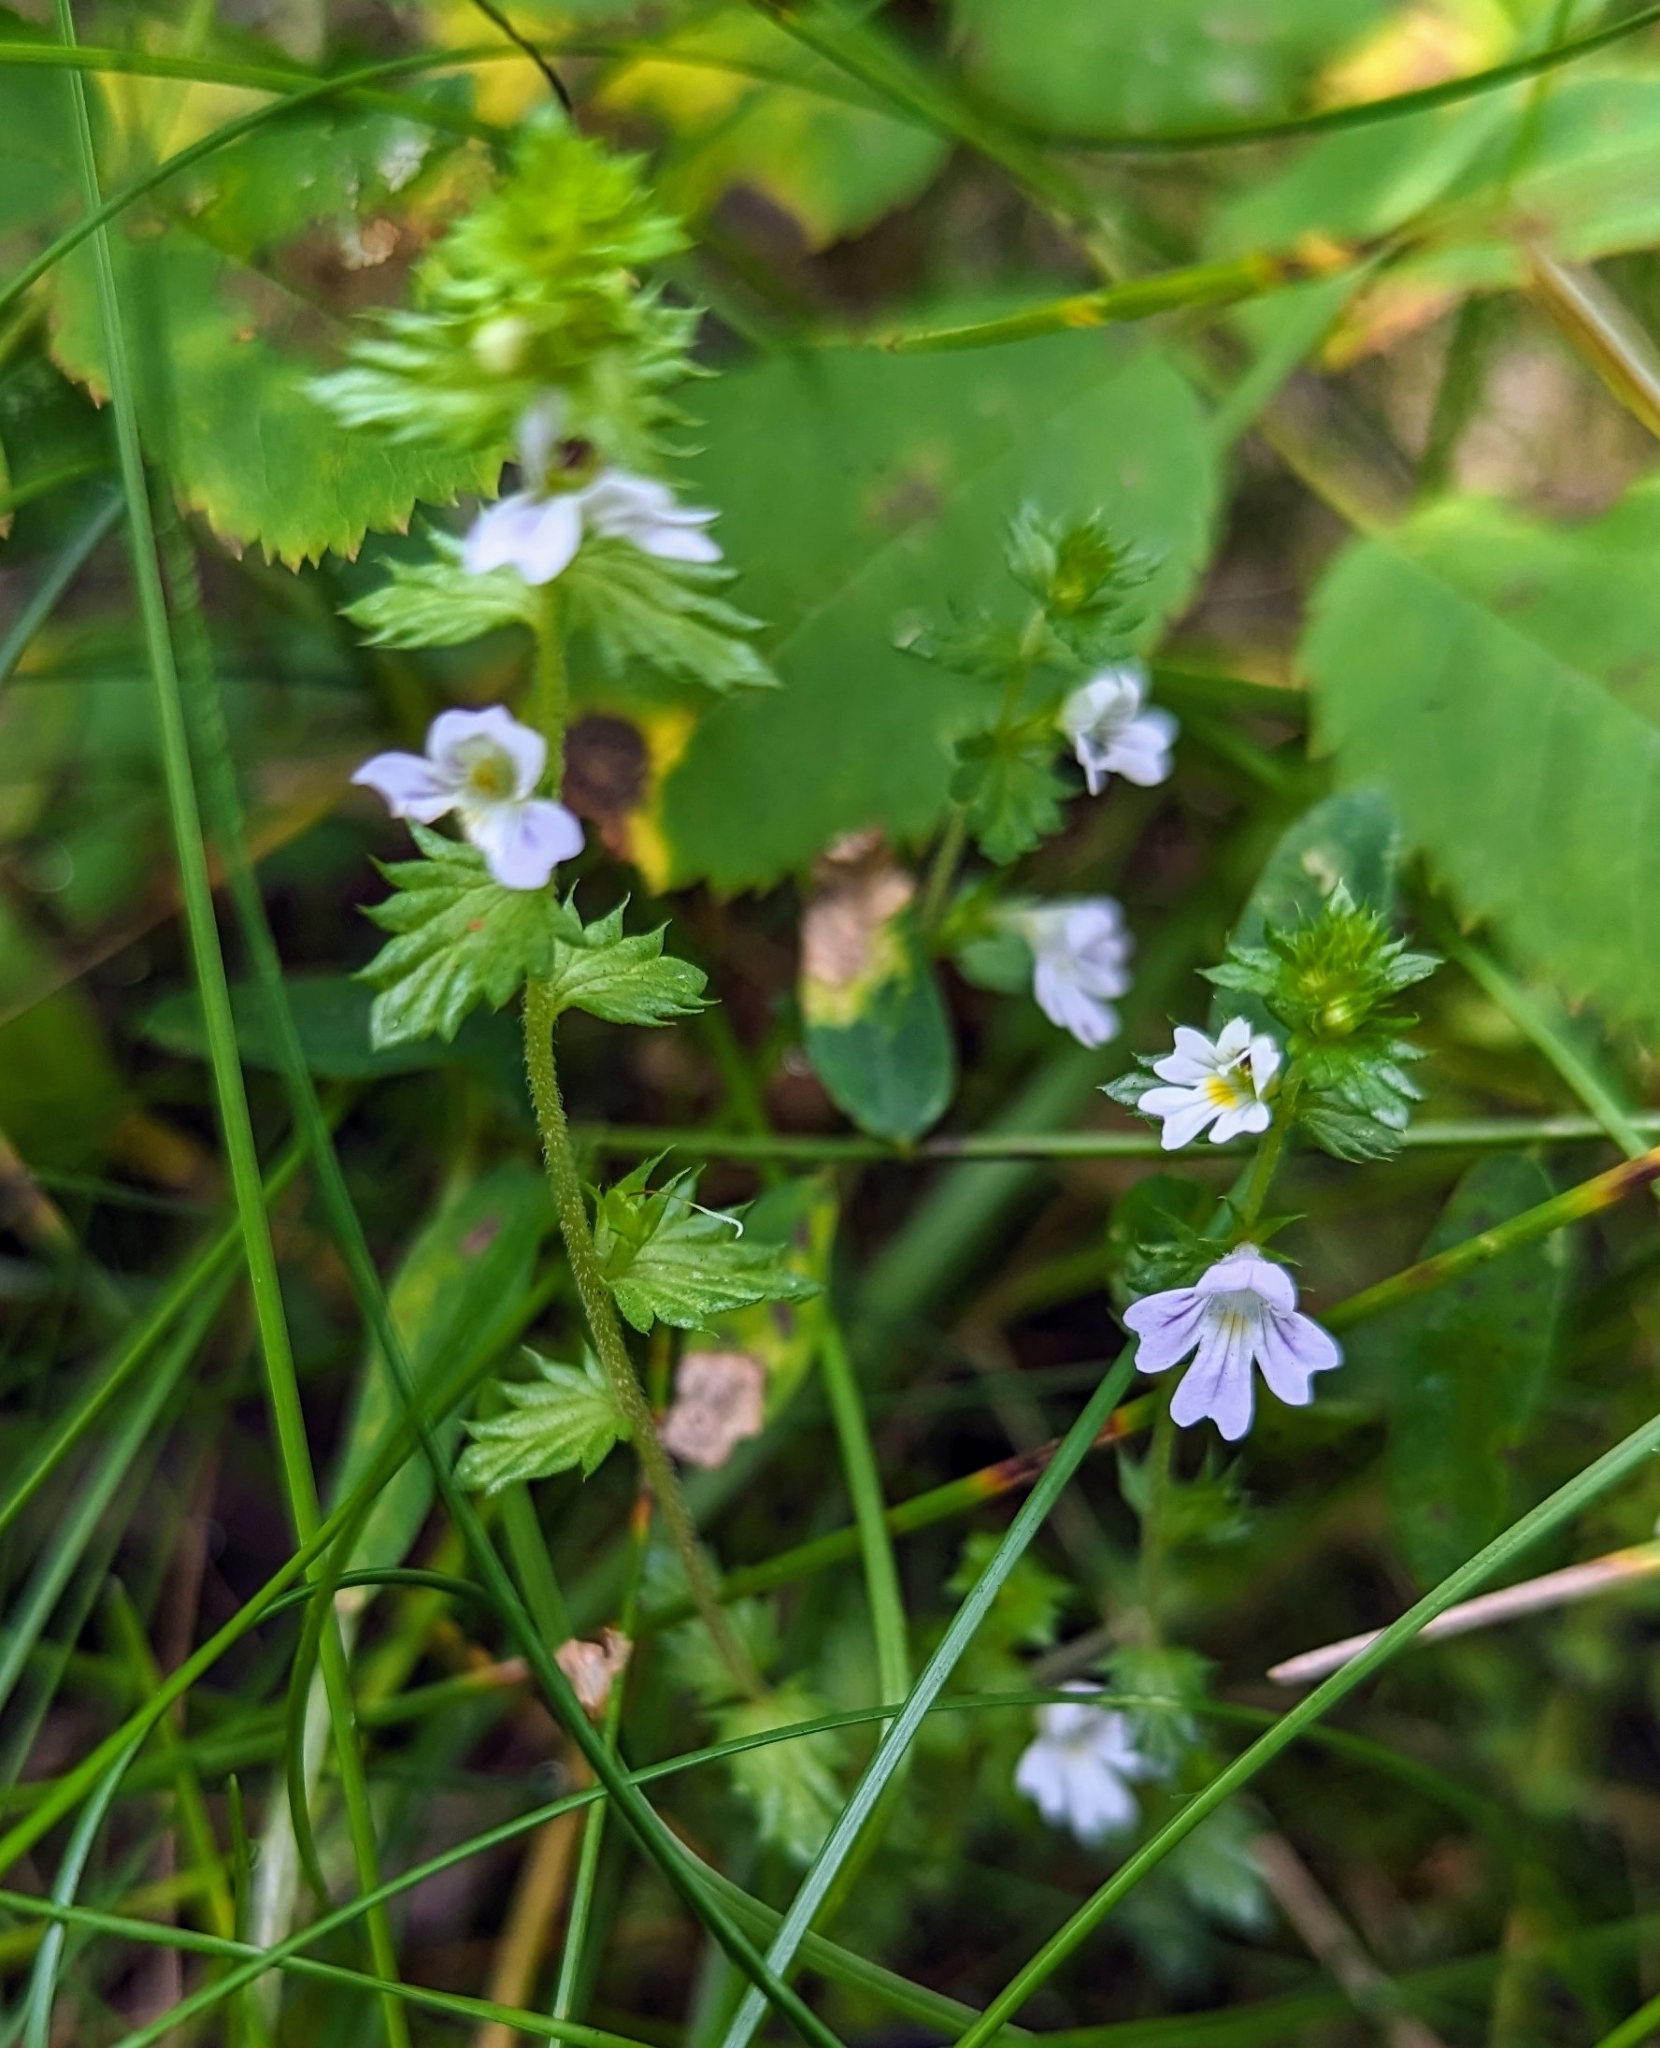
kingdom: Plantae
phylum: Tracheophyta
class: Magnoliopsida
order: Lamiales
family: Orobanchaceae
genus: Euphrasia
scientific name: Euphrasia nemorosa
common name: Common eyebright
